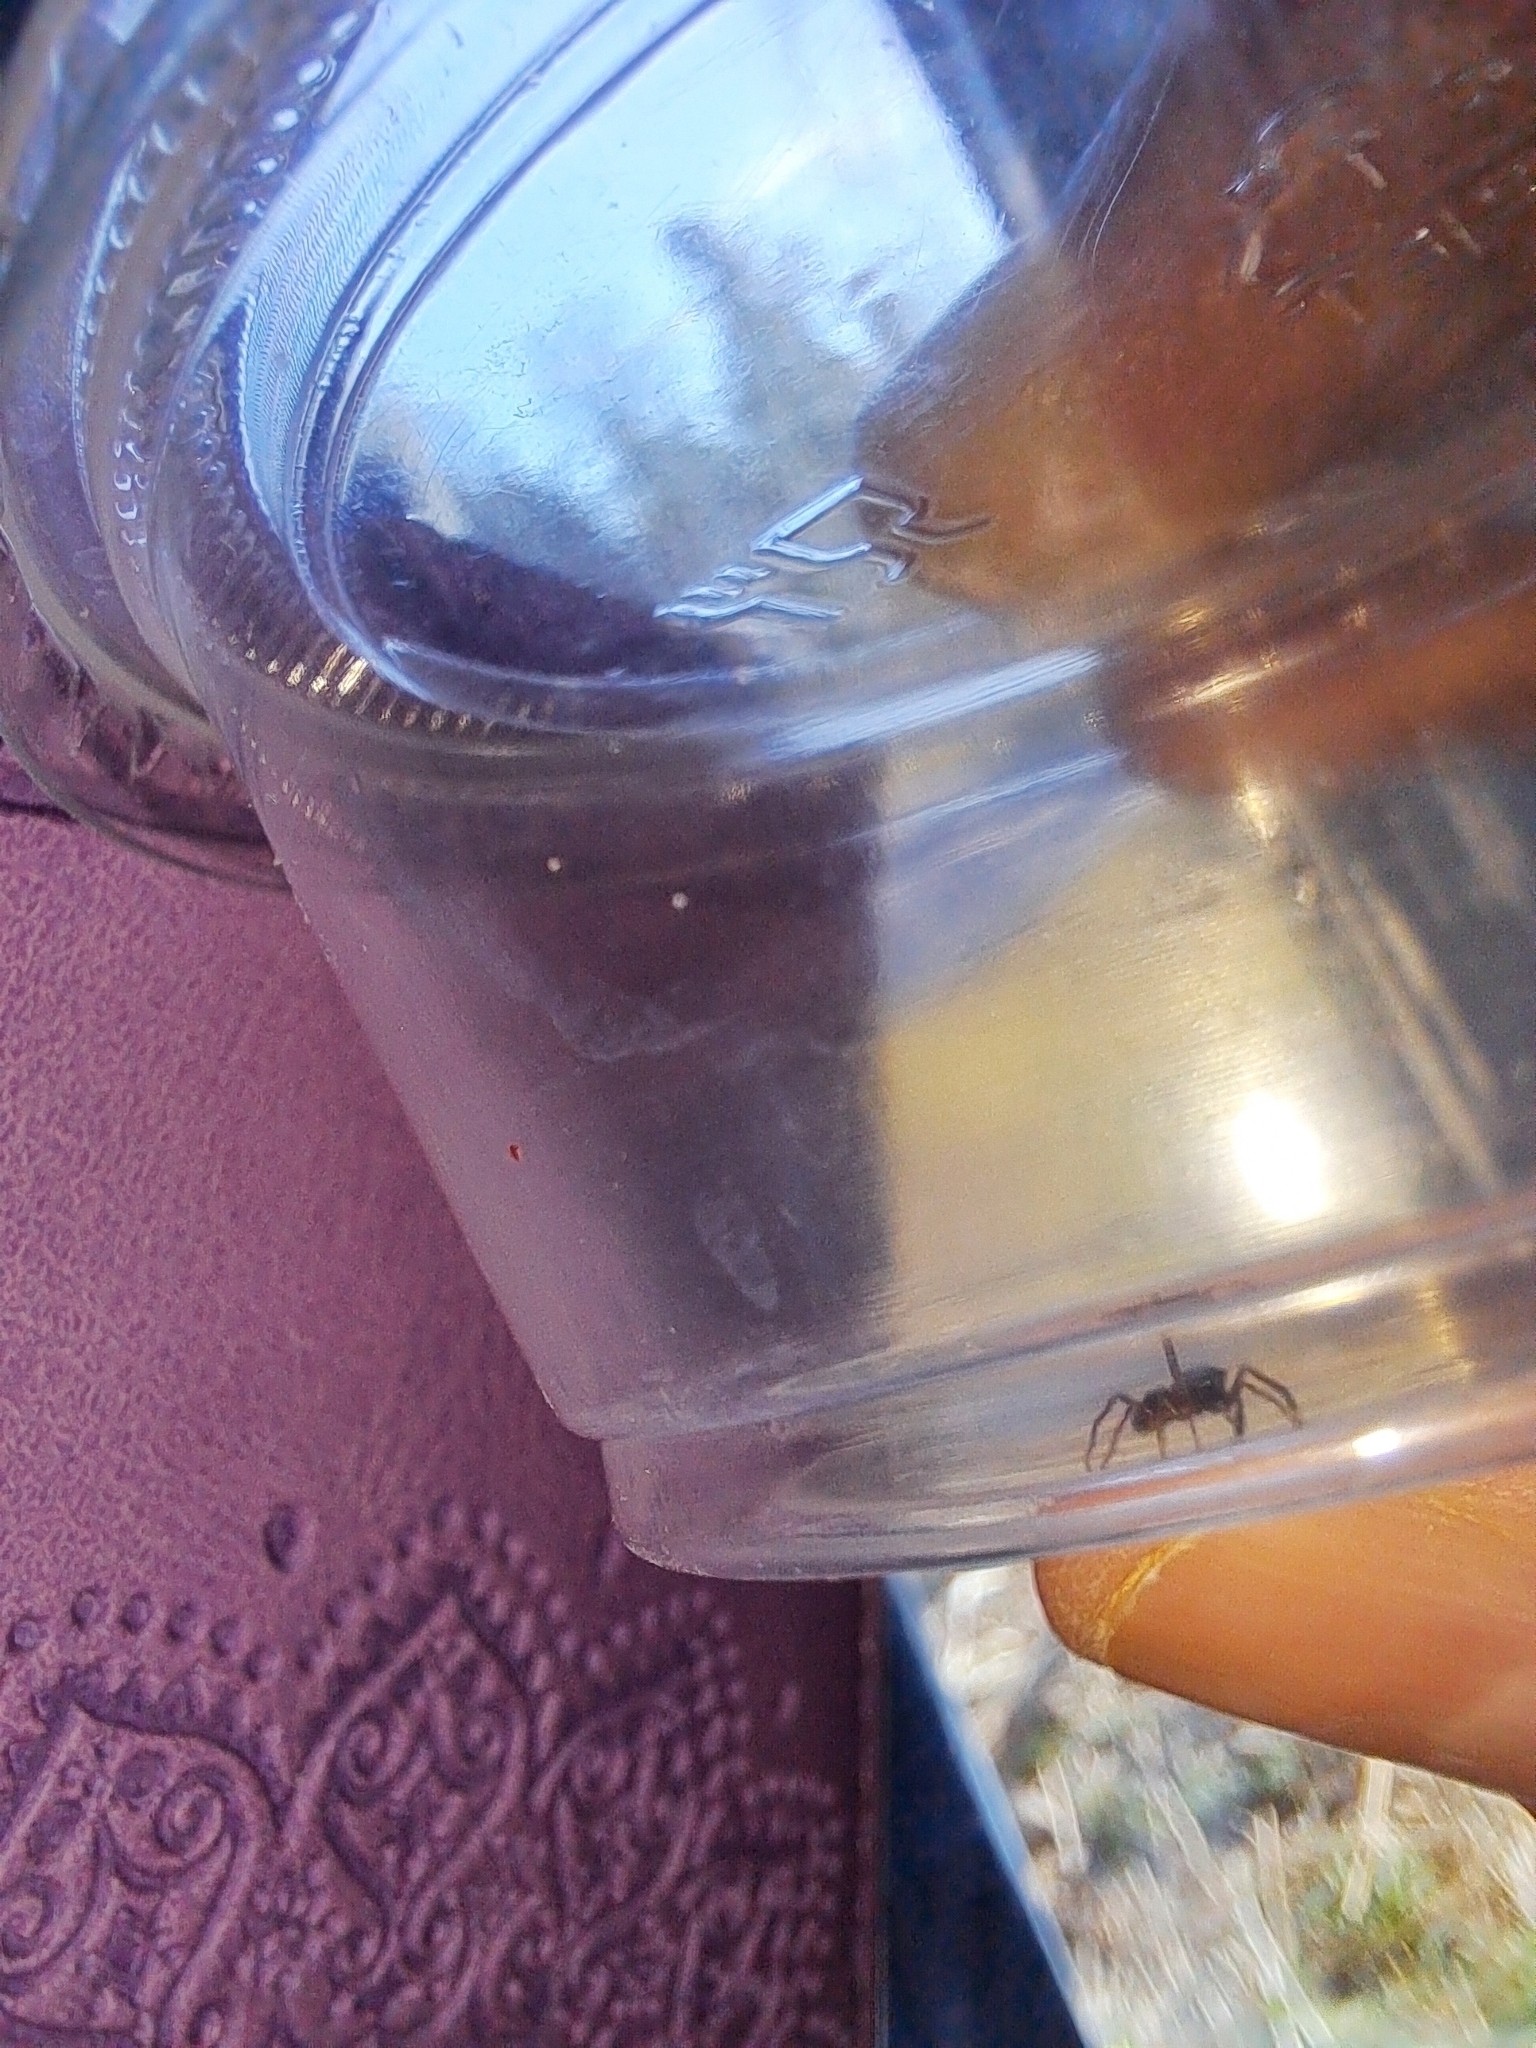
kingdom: Animalia
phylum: Arthropoda
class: Arachnida
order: Araneae
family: Salticidae
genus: Myrmarachne
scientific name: Myrmarachne formicaria
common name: Ant mimic jumping spider
